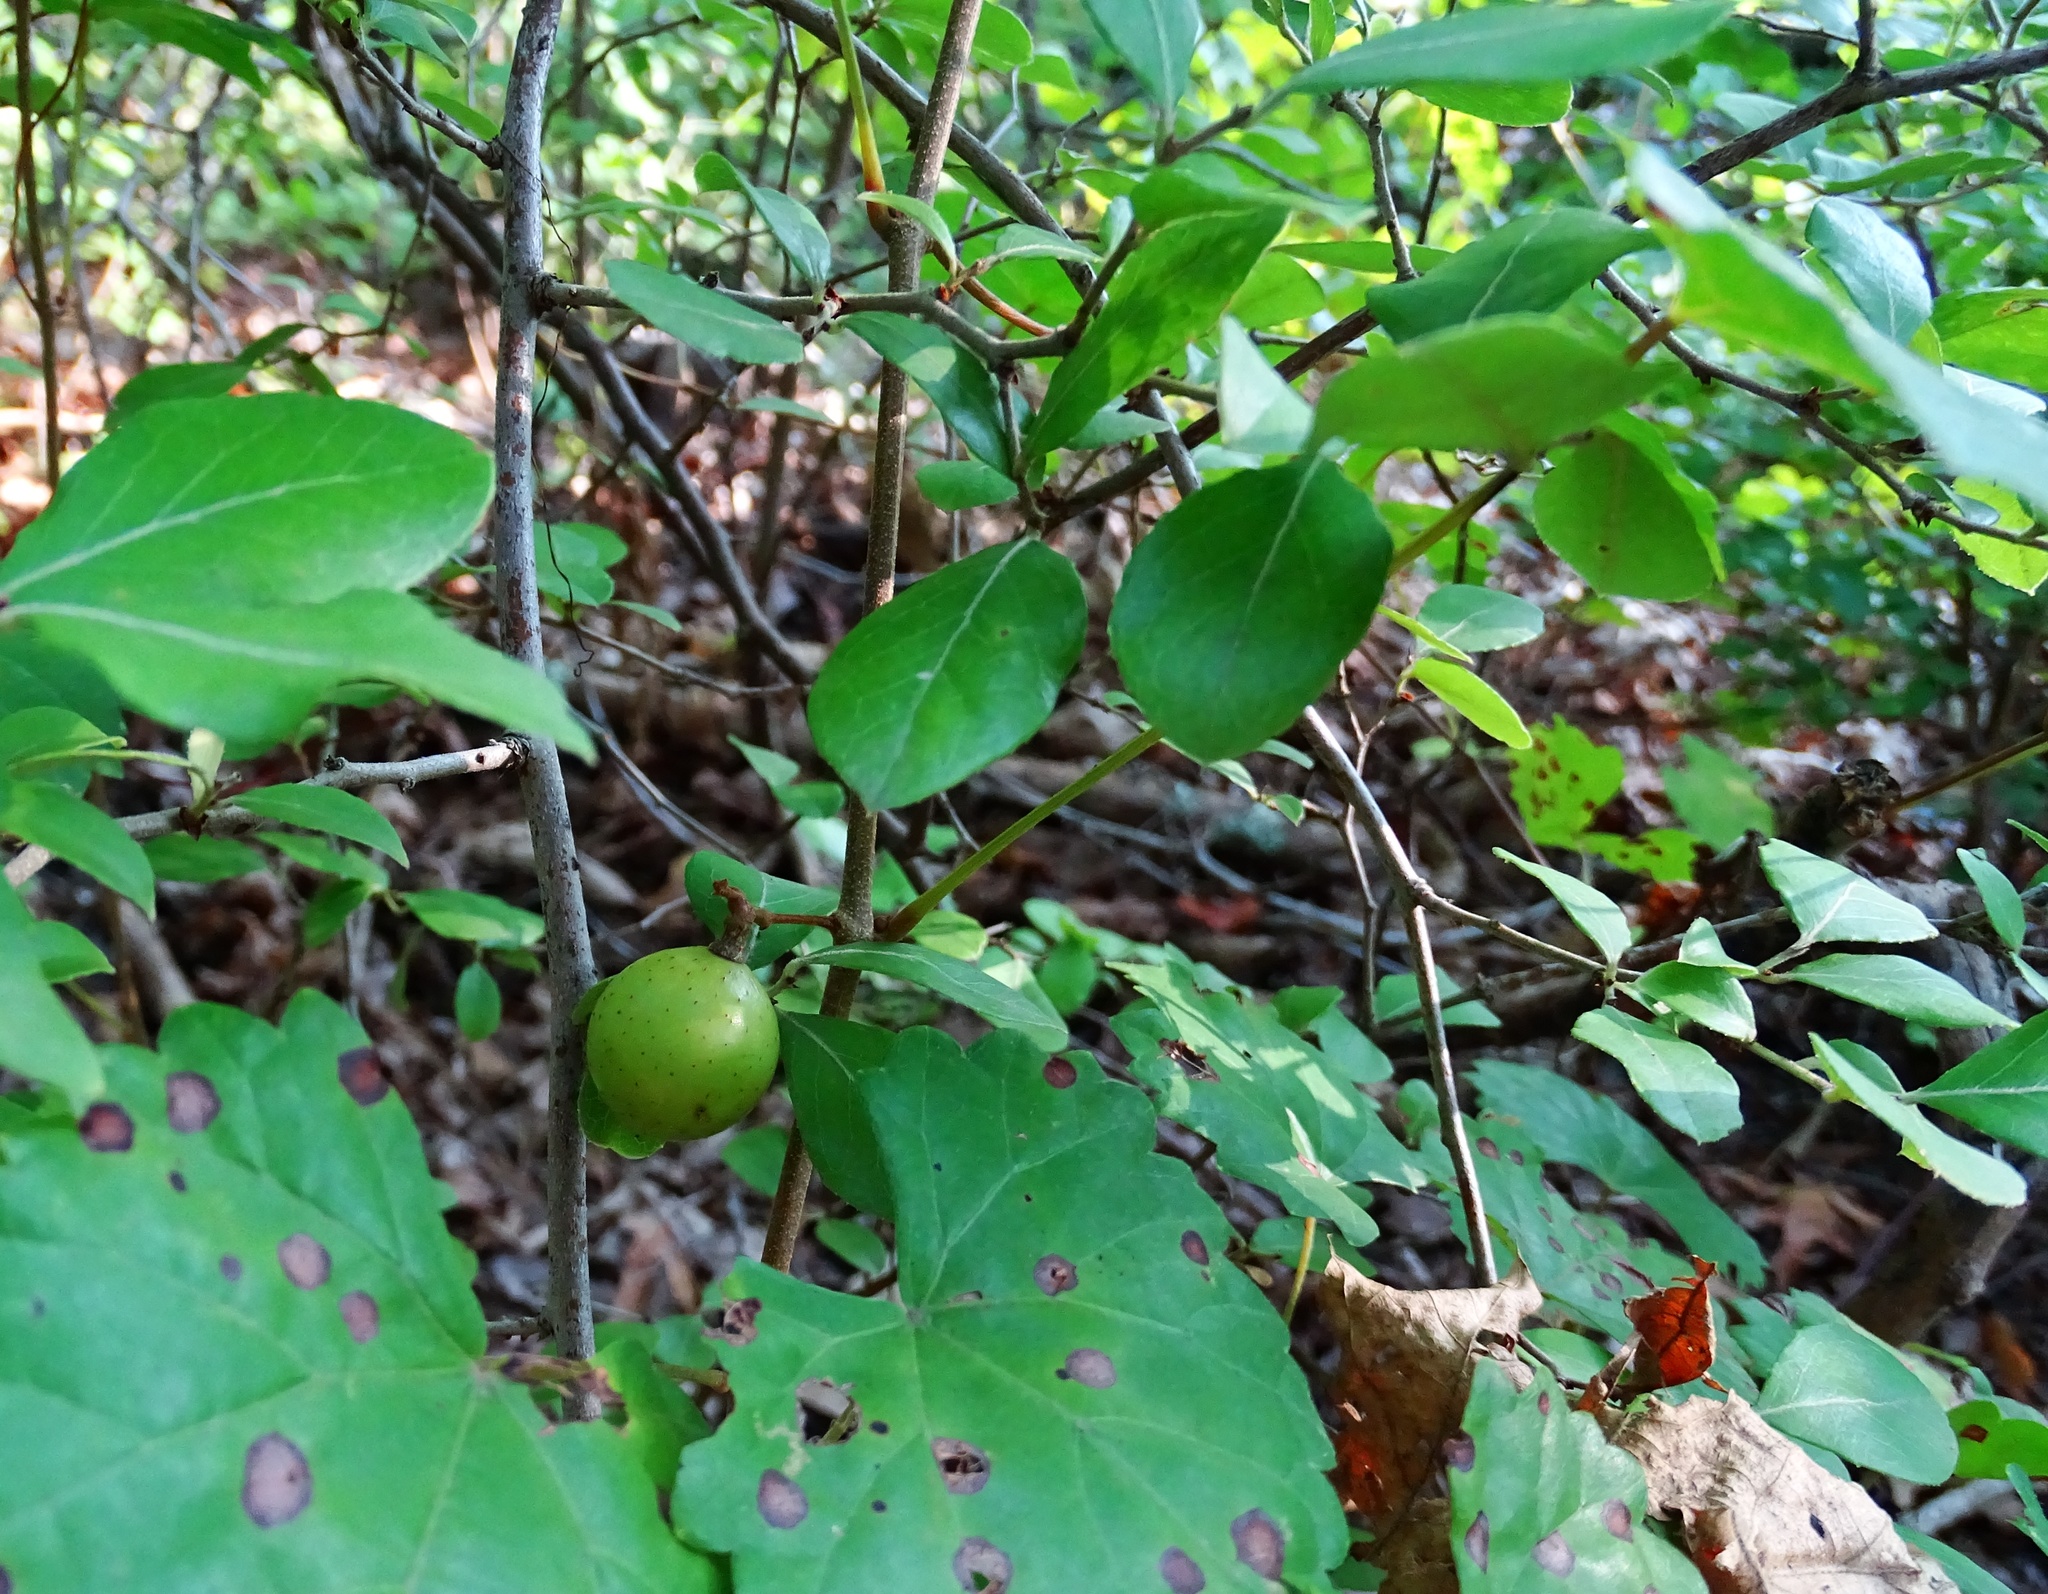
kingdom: Plantae
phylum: Tracheophyta
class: Magnoliopsida
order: Vitales
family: Vitaceae
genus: Vitis
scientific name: Vitis rotundifolia
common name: Muscadine grape
